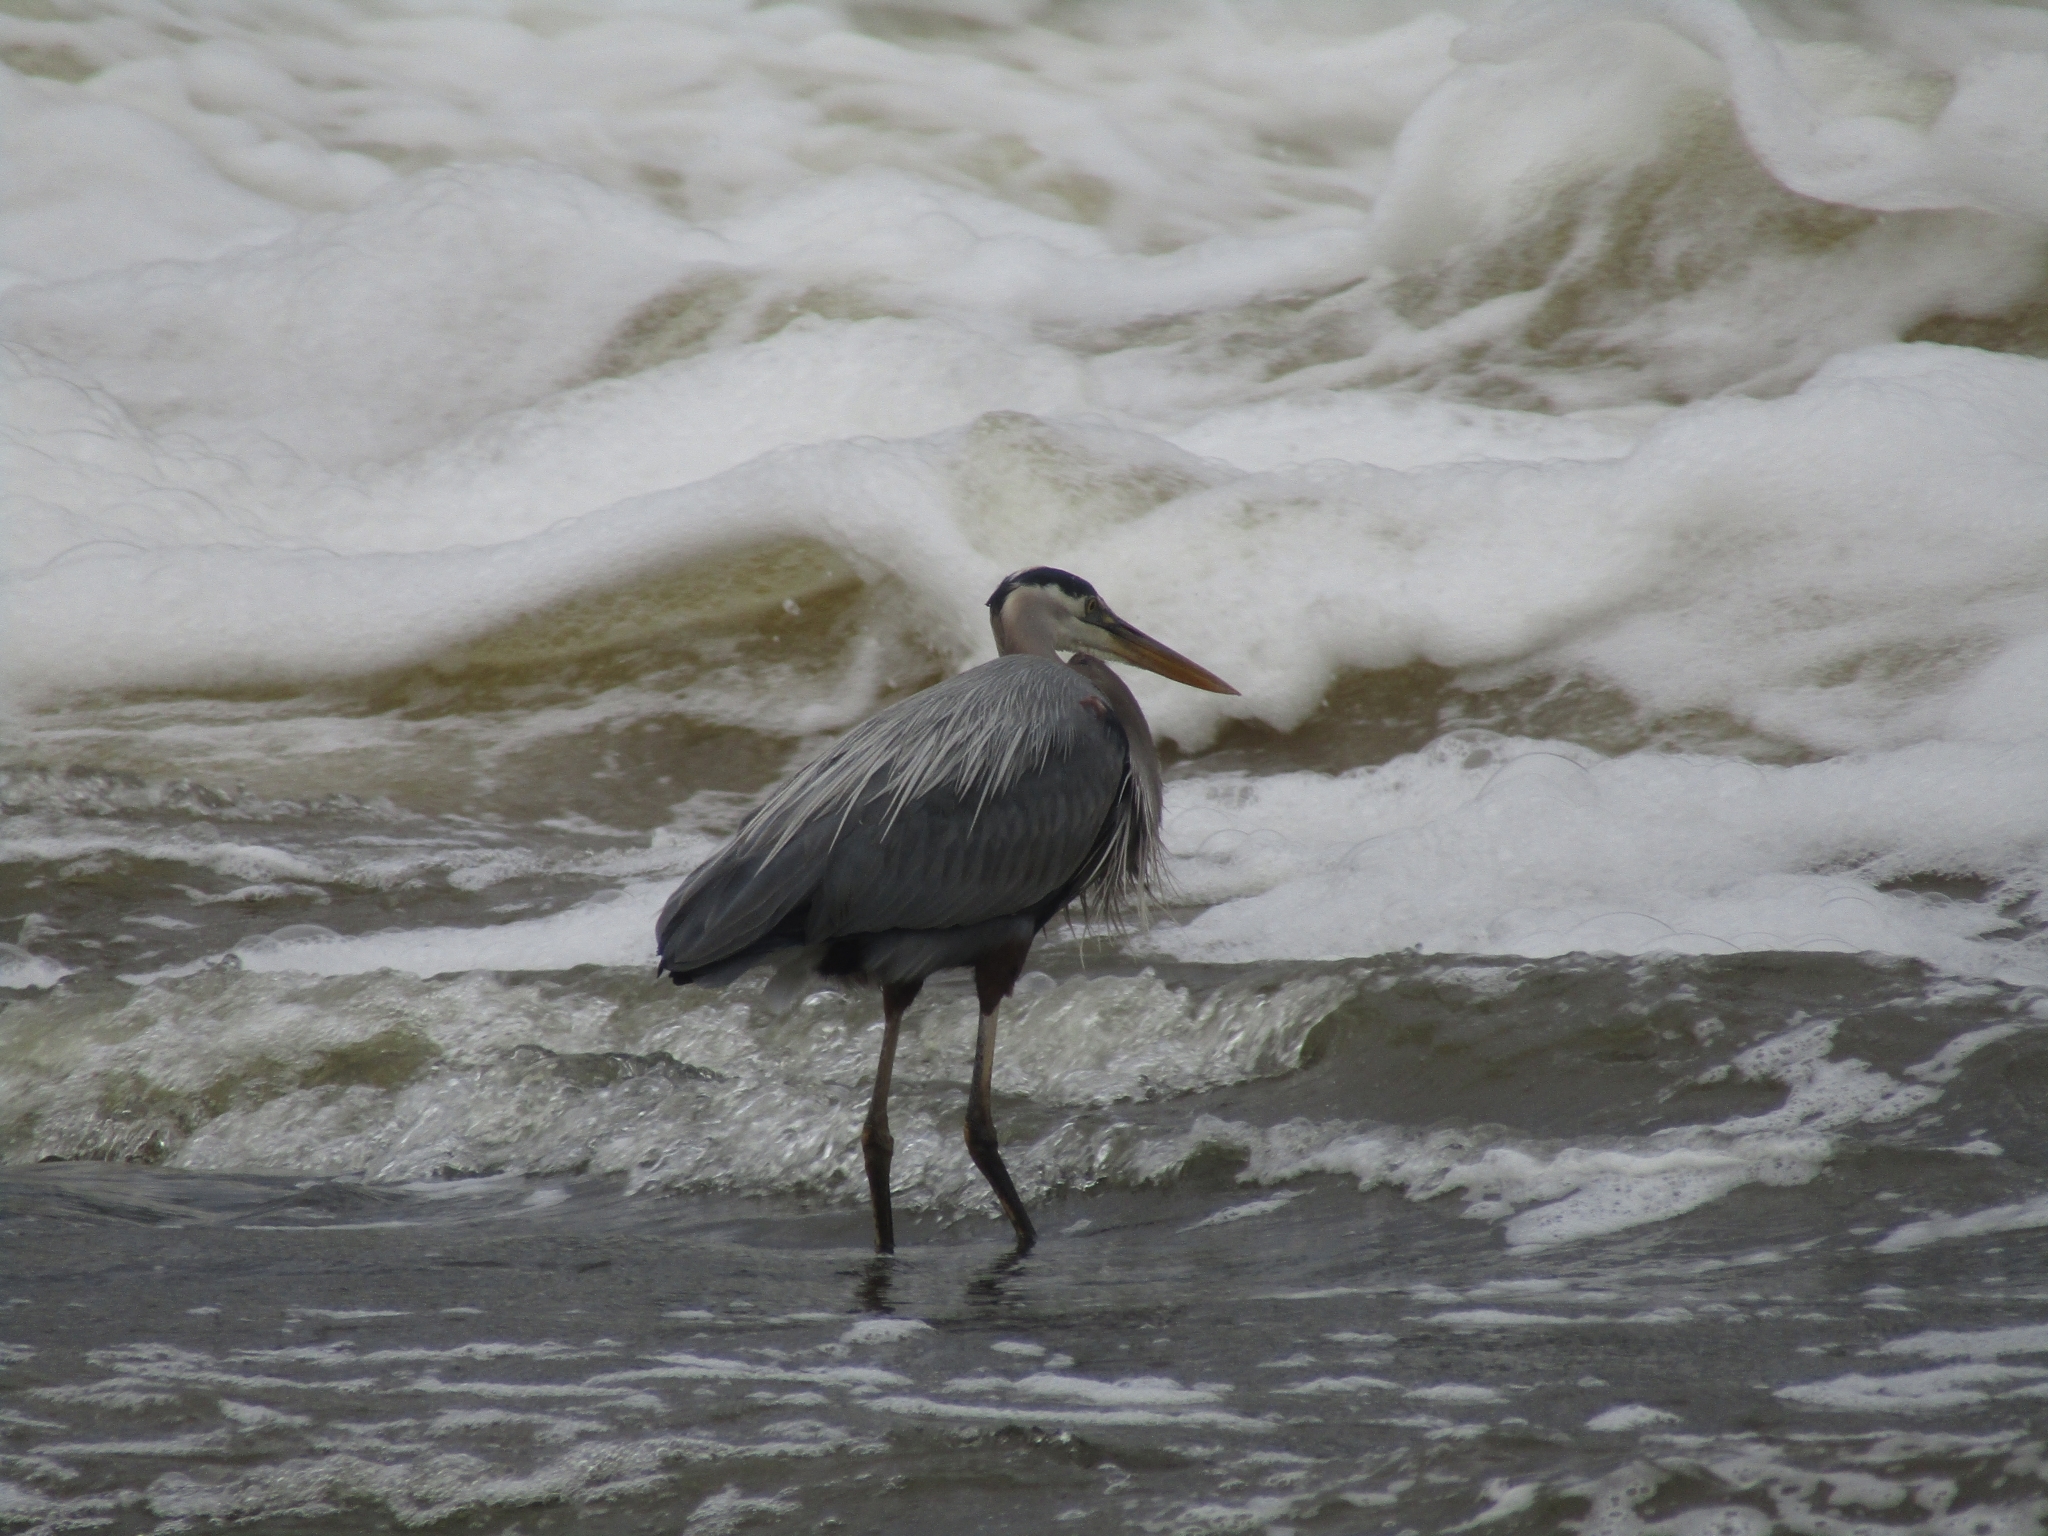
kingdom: Animalia
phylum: Chordata
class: Aves
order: Pelecaniformes
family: Ardeidae
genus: Ardea
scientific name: Ardea herodias
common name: Great blue heron
